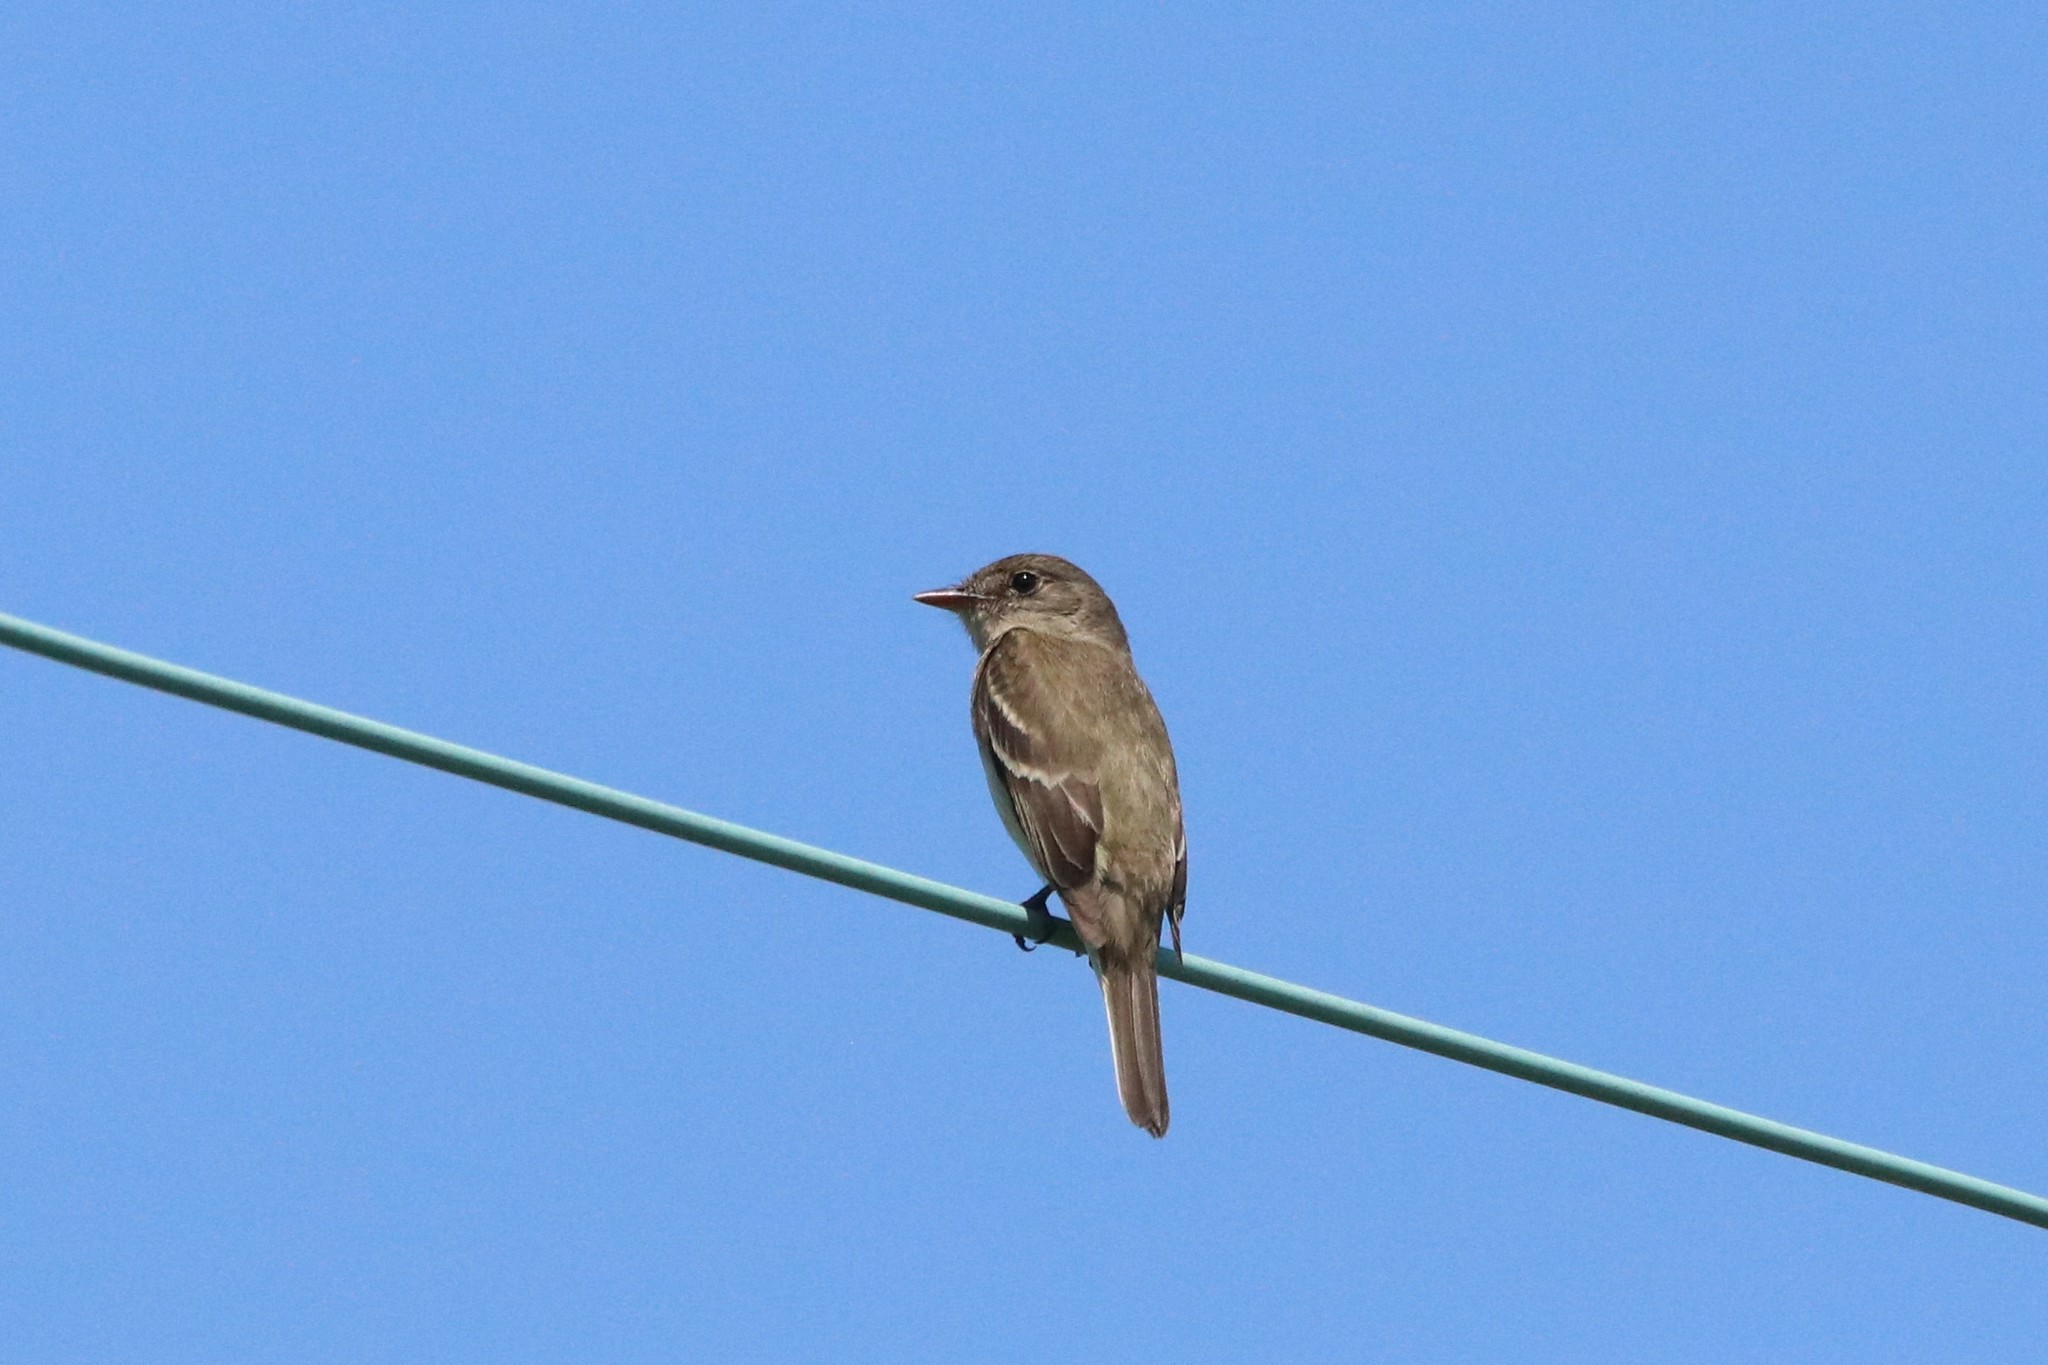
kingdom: Animalia
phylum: Chordata
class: Aves
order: Passeriformes
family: Tyrannidae
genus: Empidonax
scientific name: Empidonax alnorum
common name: Alder flycatcher
